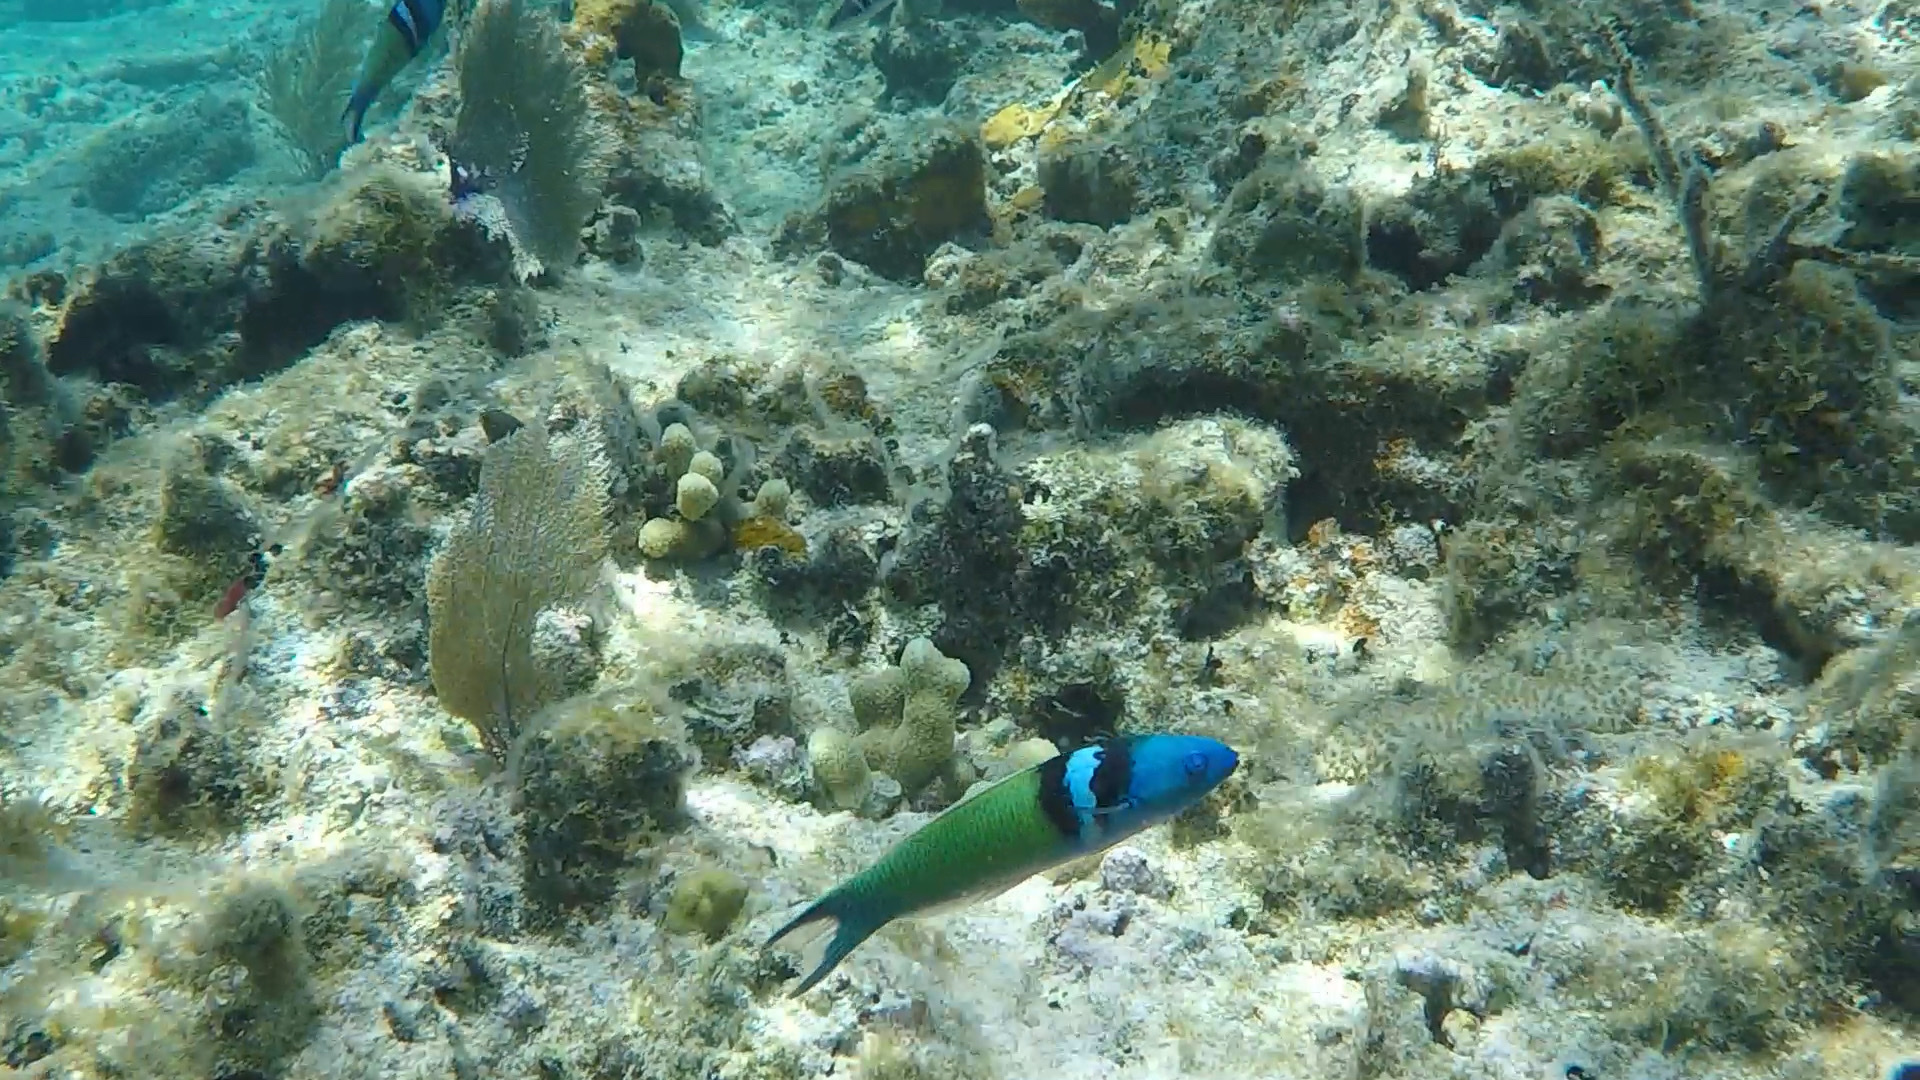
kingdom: Animalia
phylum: Chordata
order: Perciformes
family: Labridae
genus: Thalassoma
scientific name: Thalassoma bifasciatum
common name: Bluehead wrasse
